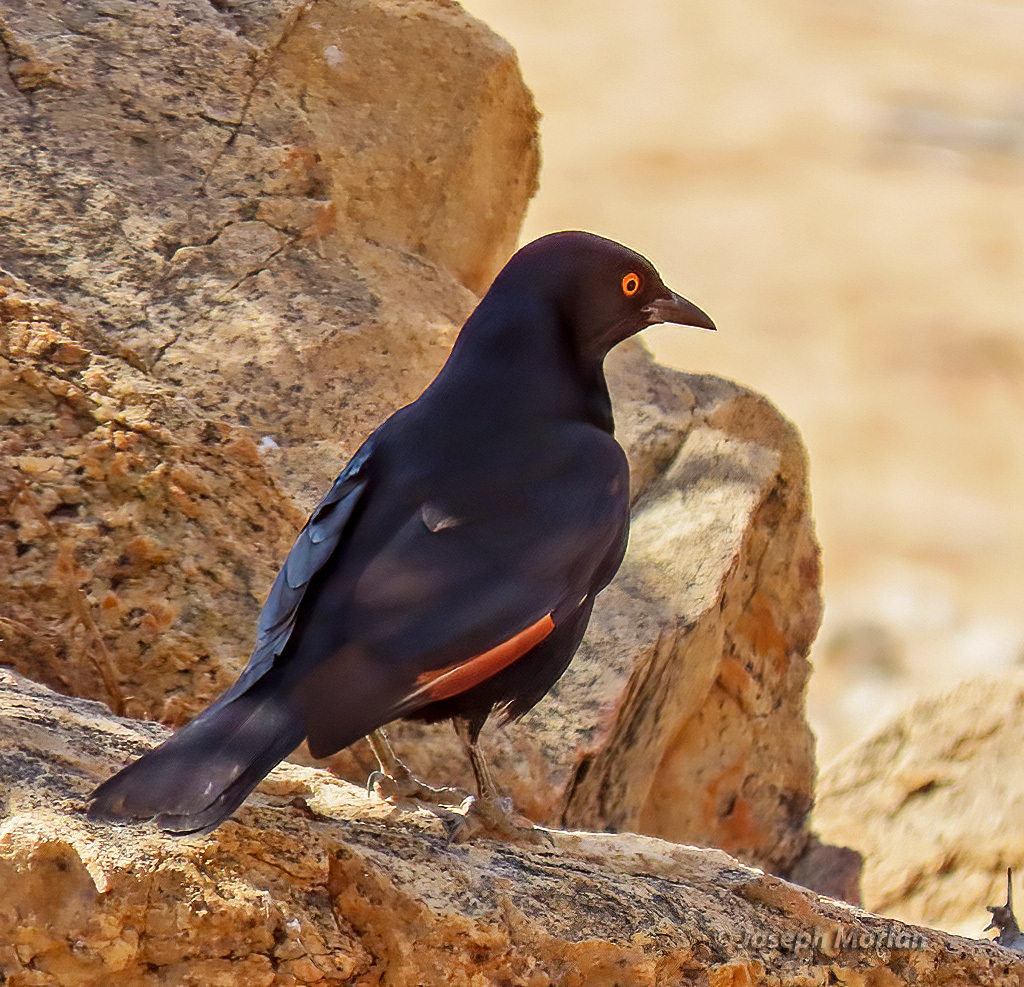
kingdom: Animalia
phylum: Chordata
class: Aves
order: Passeriformes
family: Sturnidae
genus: Onychognathus
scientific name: Onychognathus nabouroup
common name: Pale-winged starling
